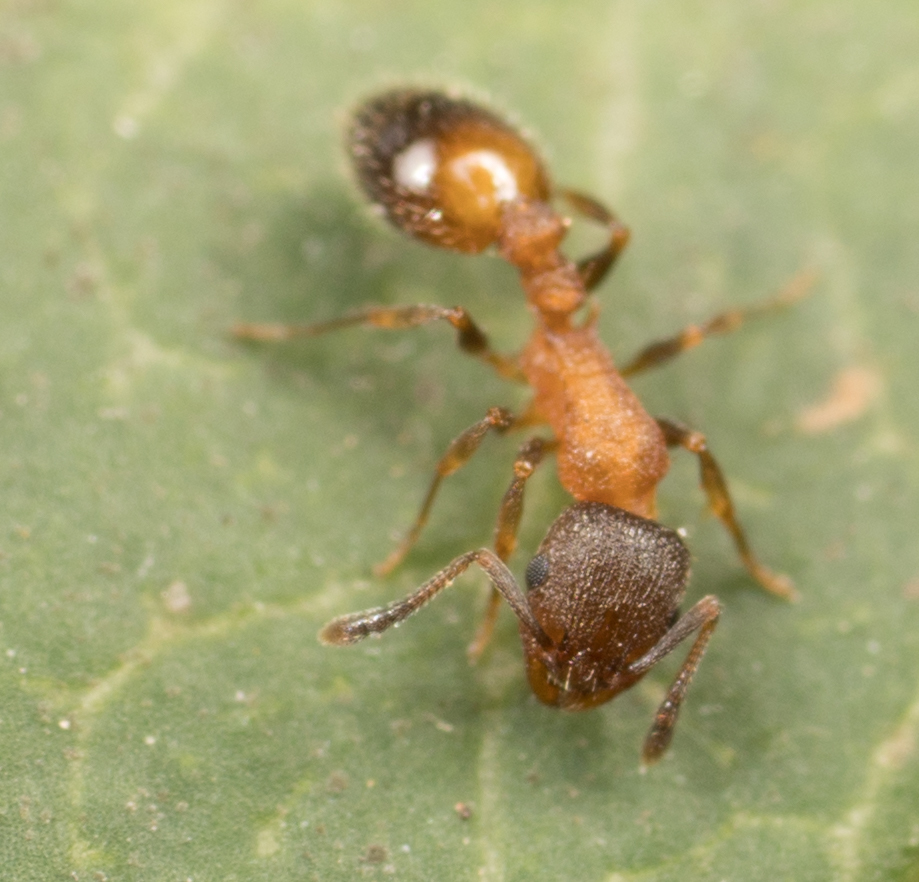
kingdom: Animalia
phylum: Arthropoda
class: Insecta
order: Hymenoptera
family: Formicidae
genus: Temnothorax
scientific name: Temnothorax caguatan
